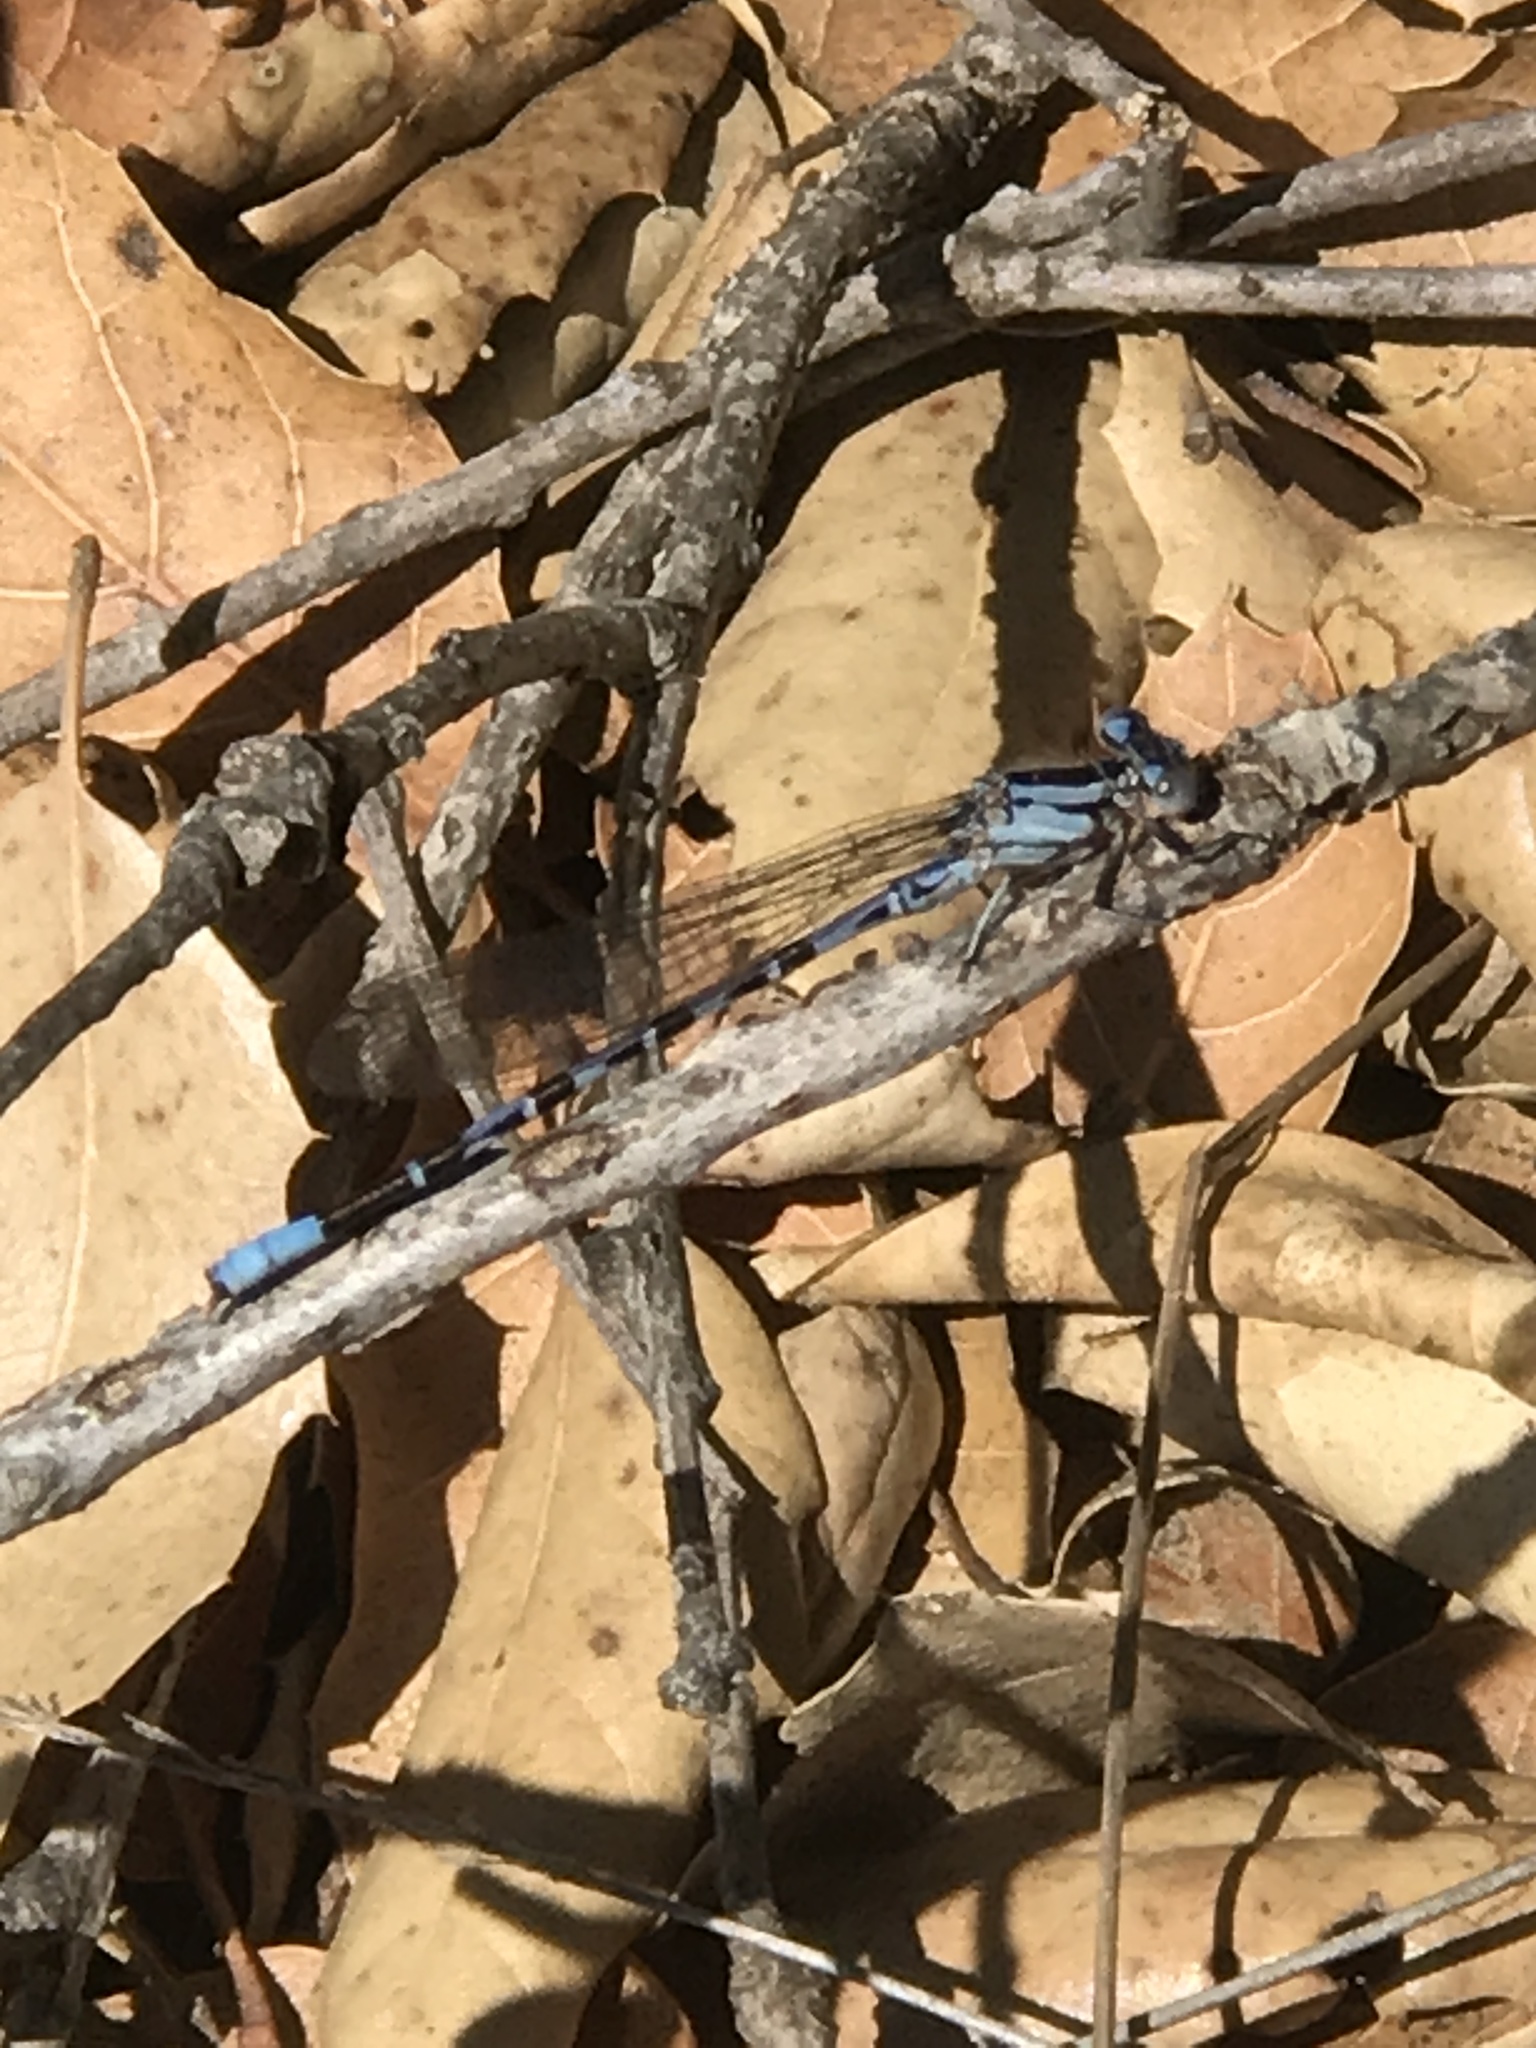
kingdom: Animalia
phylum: Arthropoda
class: Insecta
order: Odonata
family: Coenagrionidae
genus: Argia
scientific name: Argia vivida
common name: Vivid dancer
